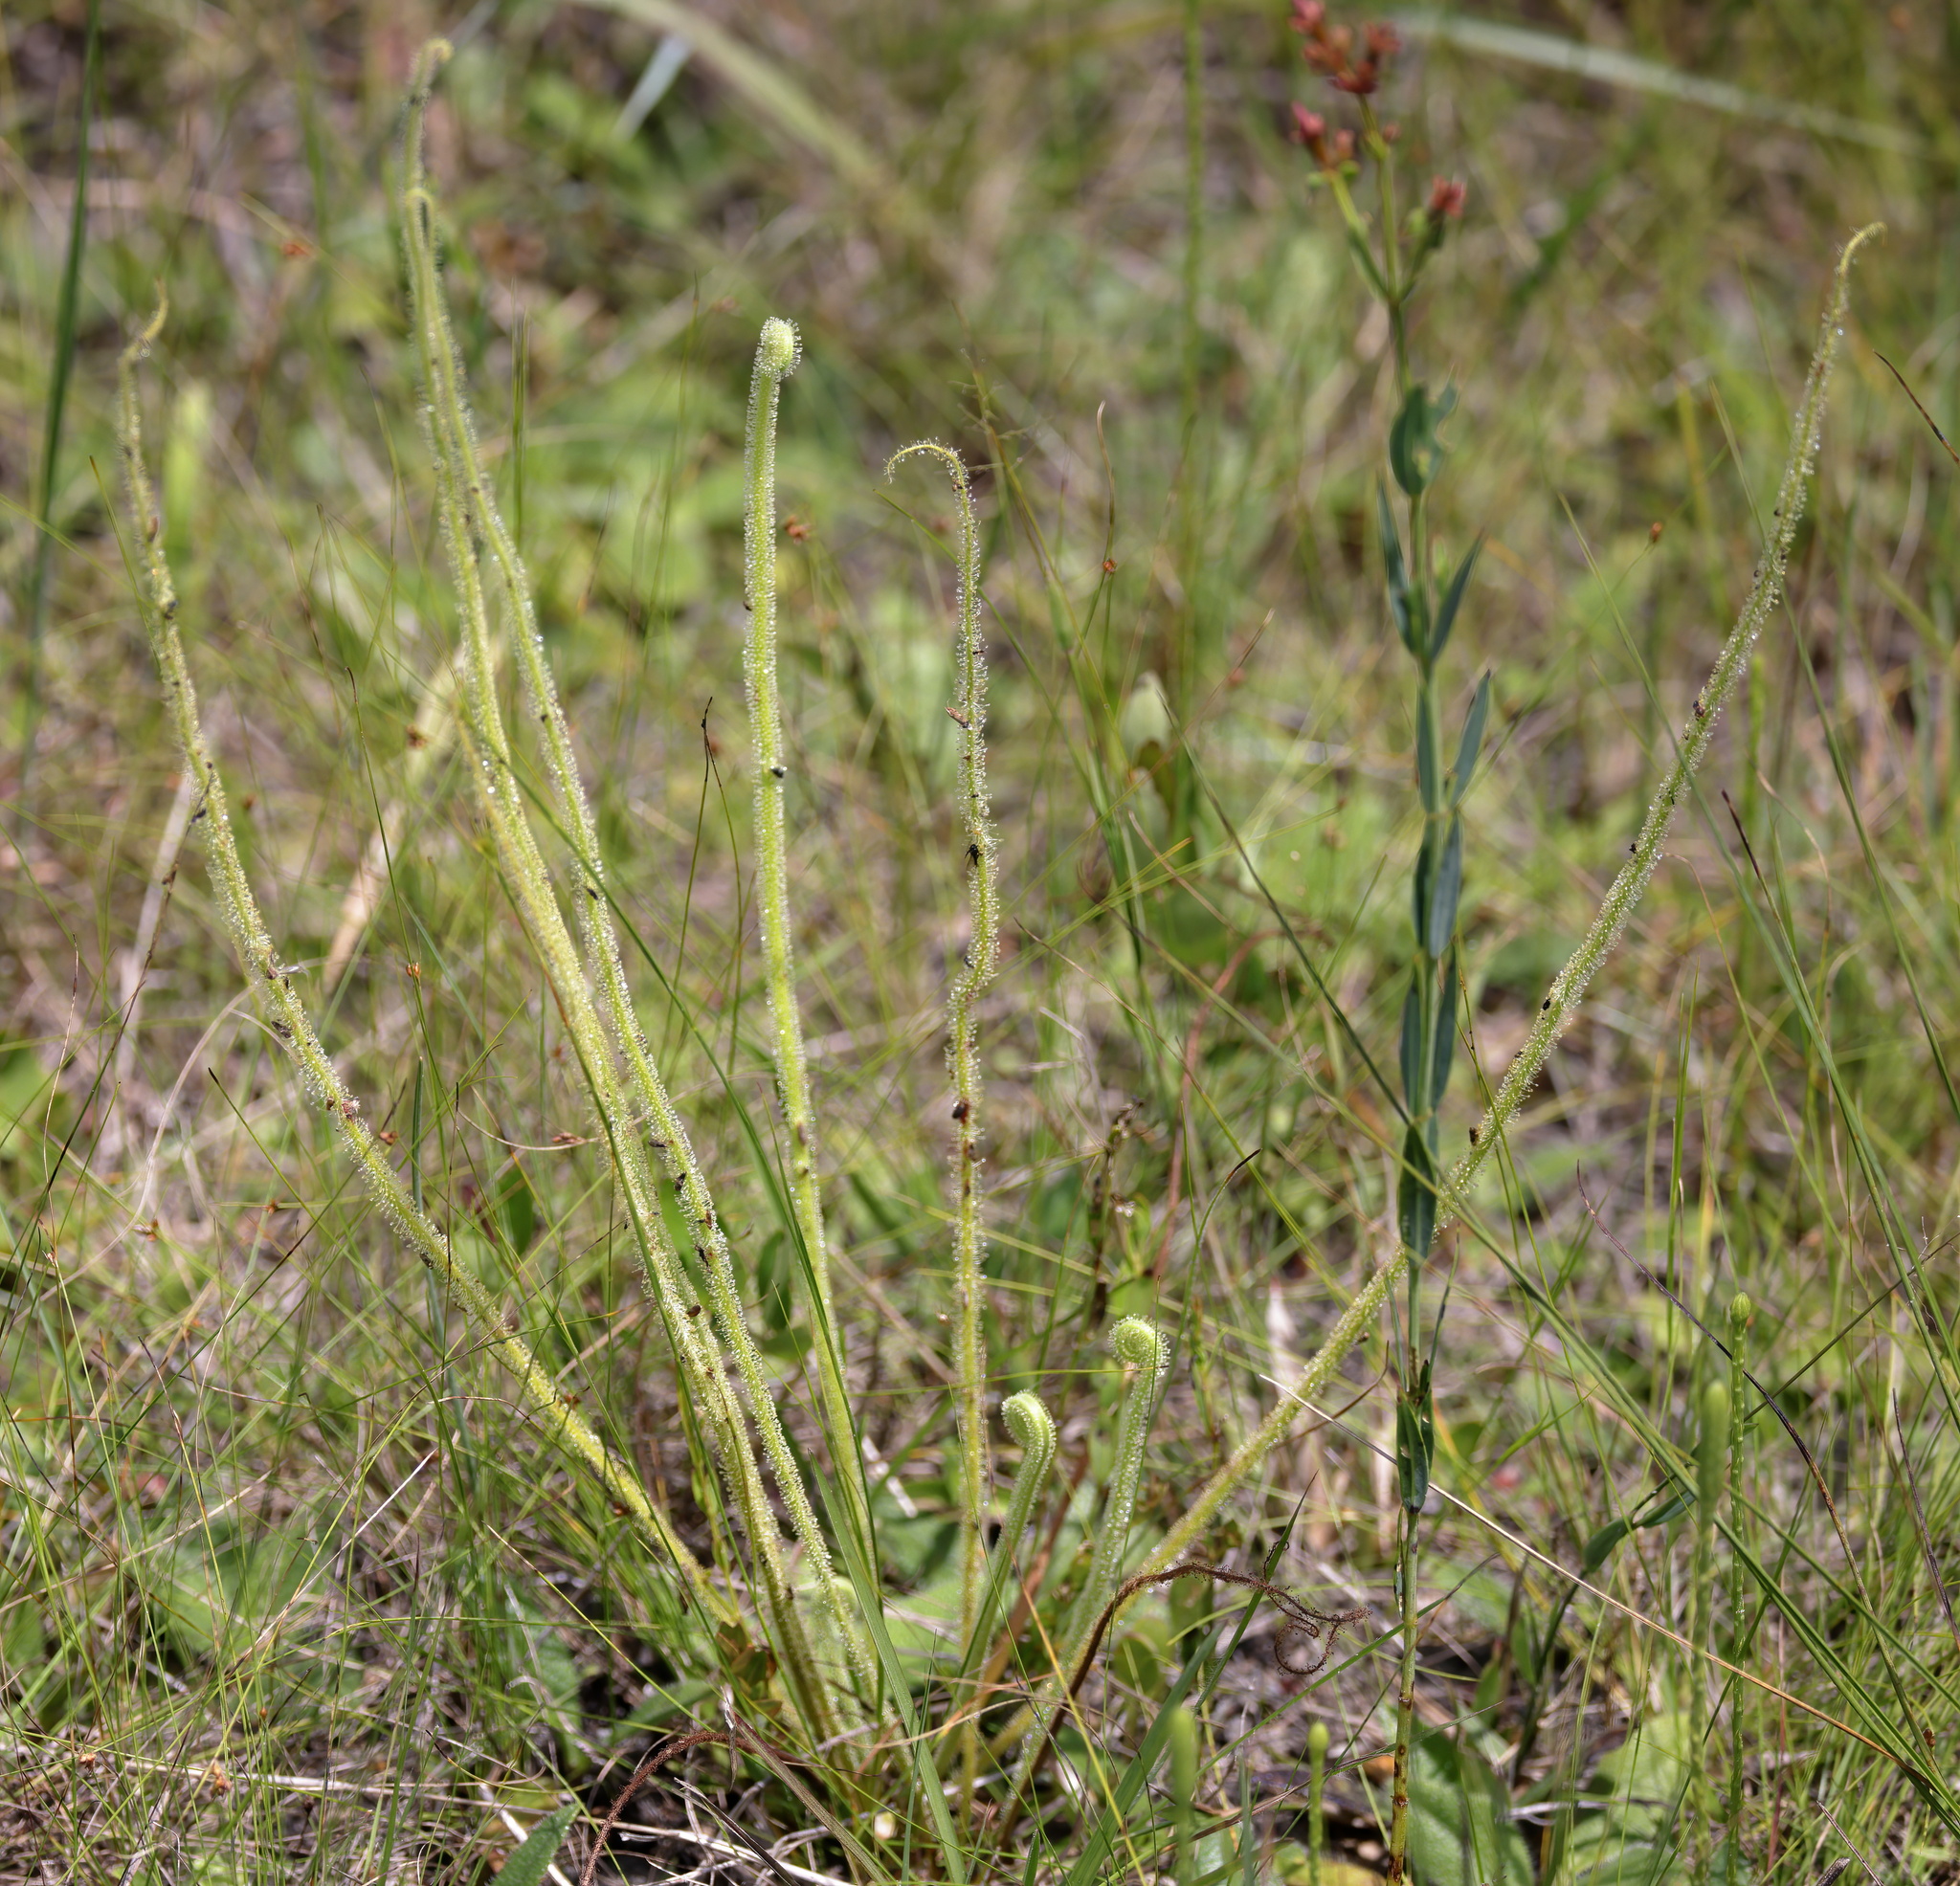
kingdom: Plantae
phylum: Tracheophyta
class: Magnoliopsida
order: Caryophyllales
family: Droseraceae
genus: Drosera
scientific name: Drosera filiformis
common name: Dew-thread
